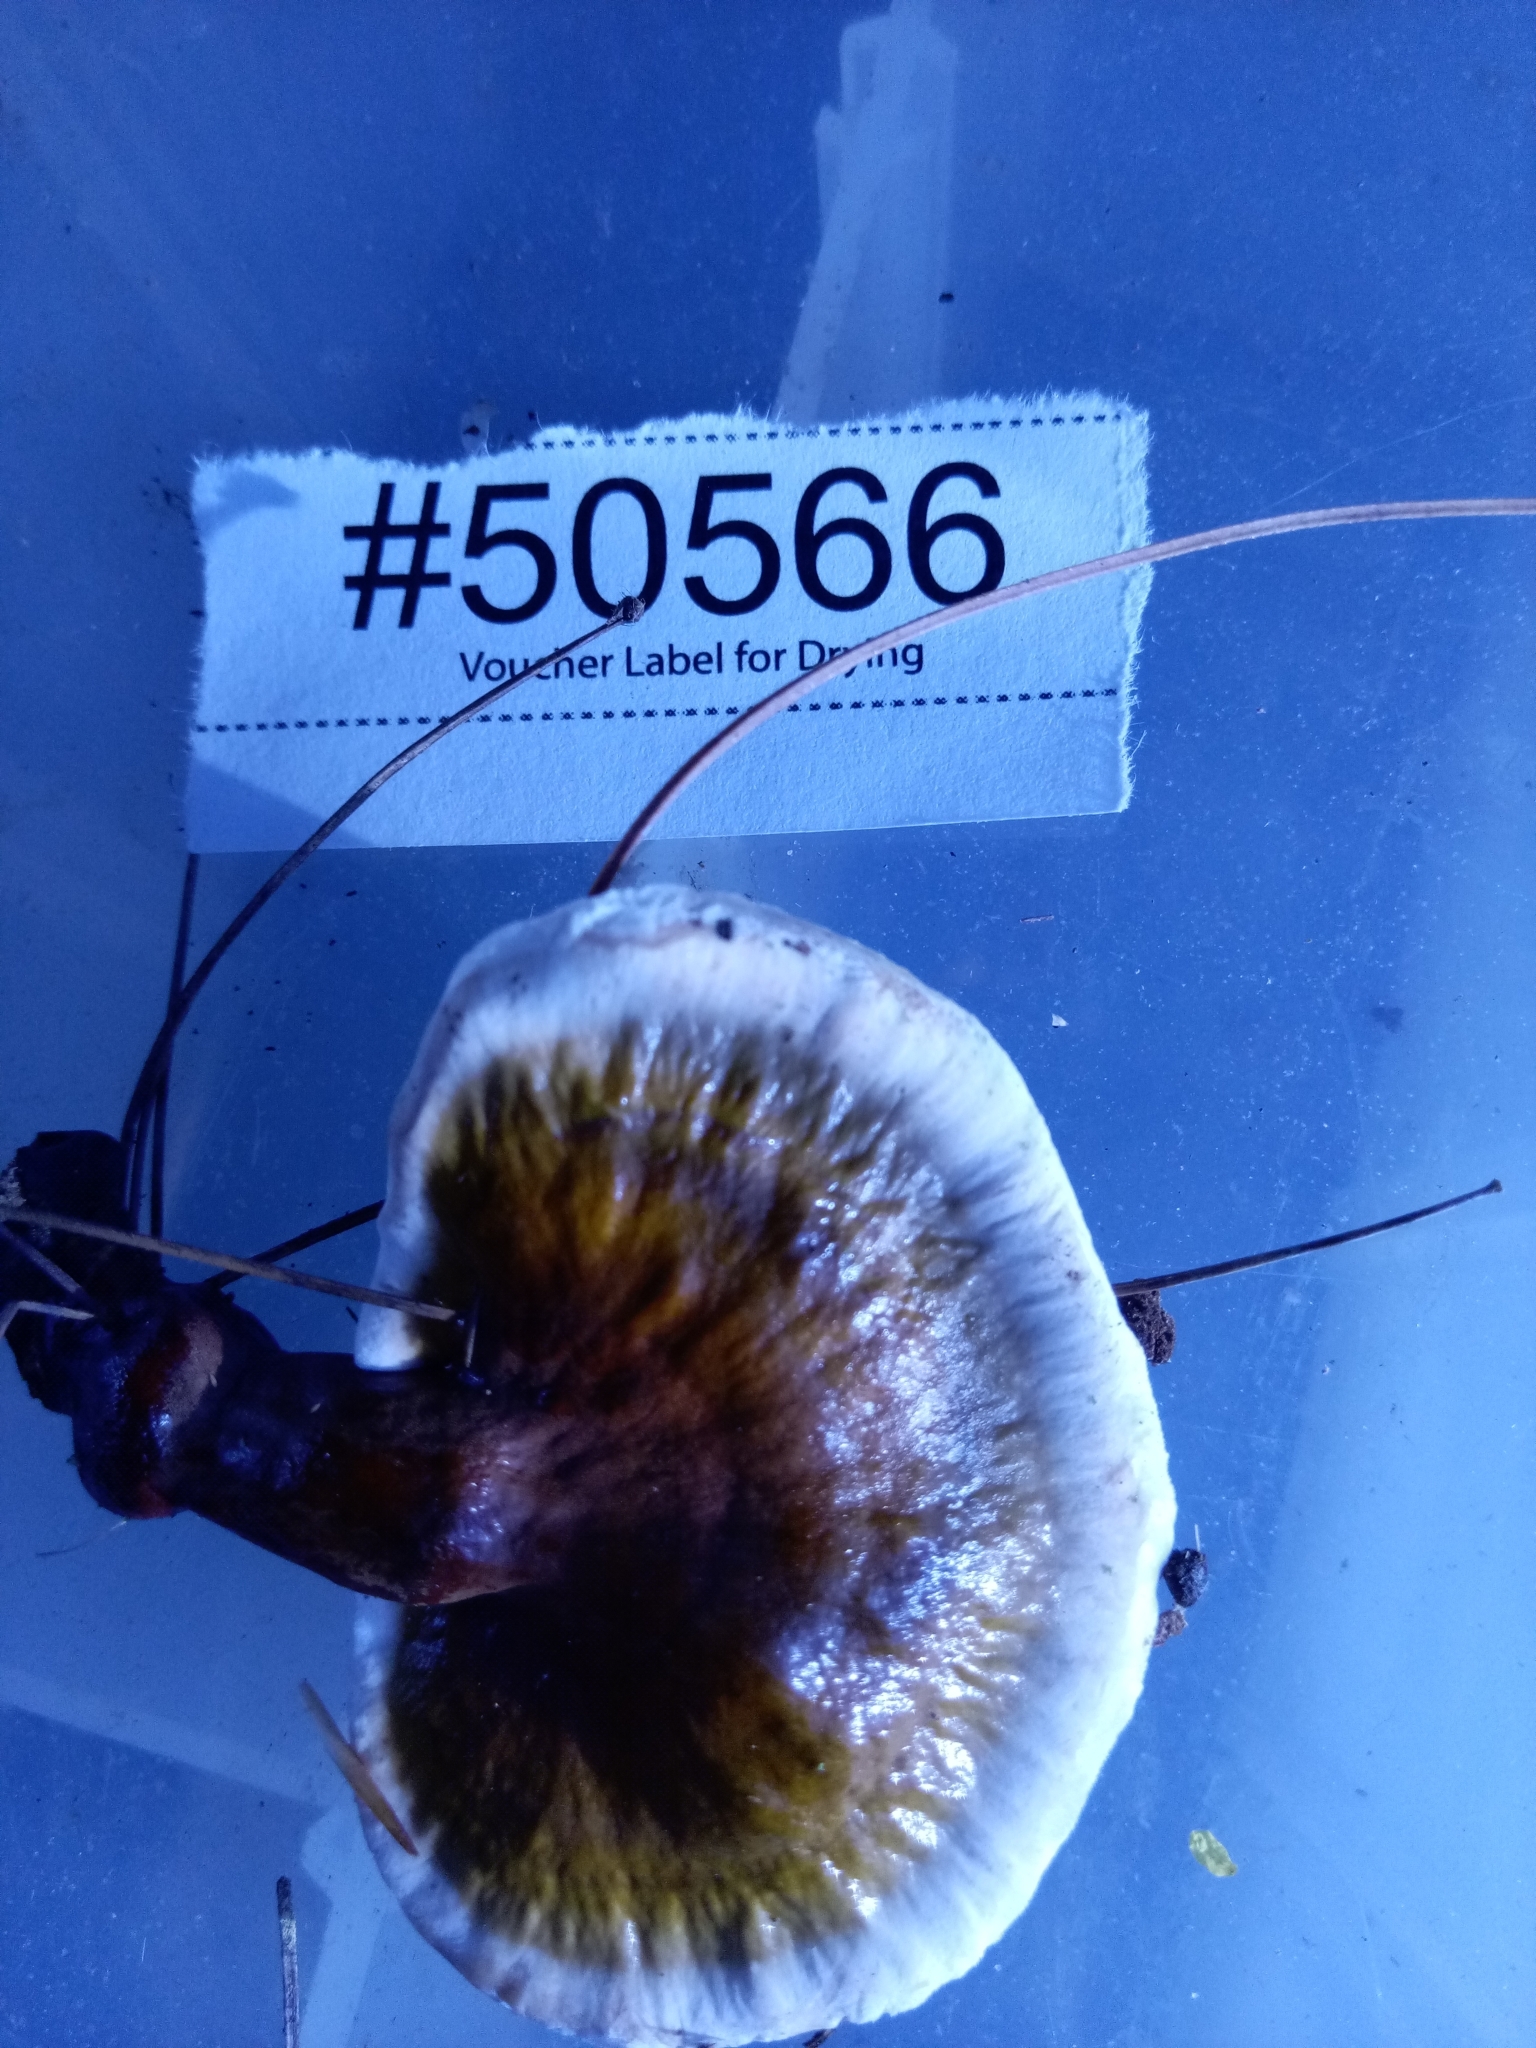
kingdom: Fungi
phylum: Basidiomycota
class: Agaricomycetes
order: Polyporales
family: Polyporaceae
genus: Ganoderma
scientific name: Ganoderma resinaceum
